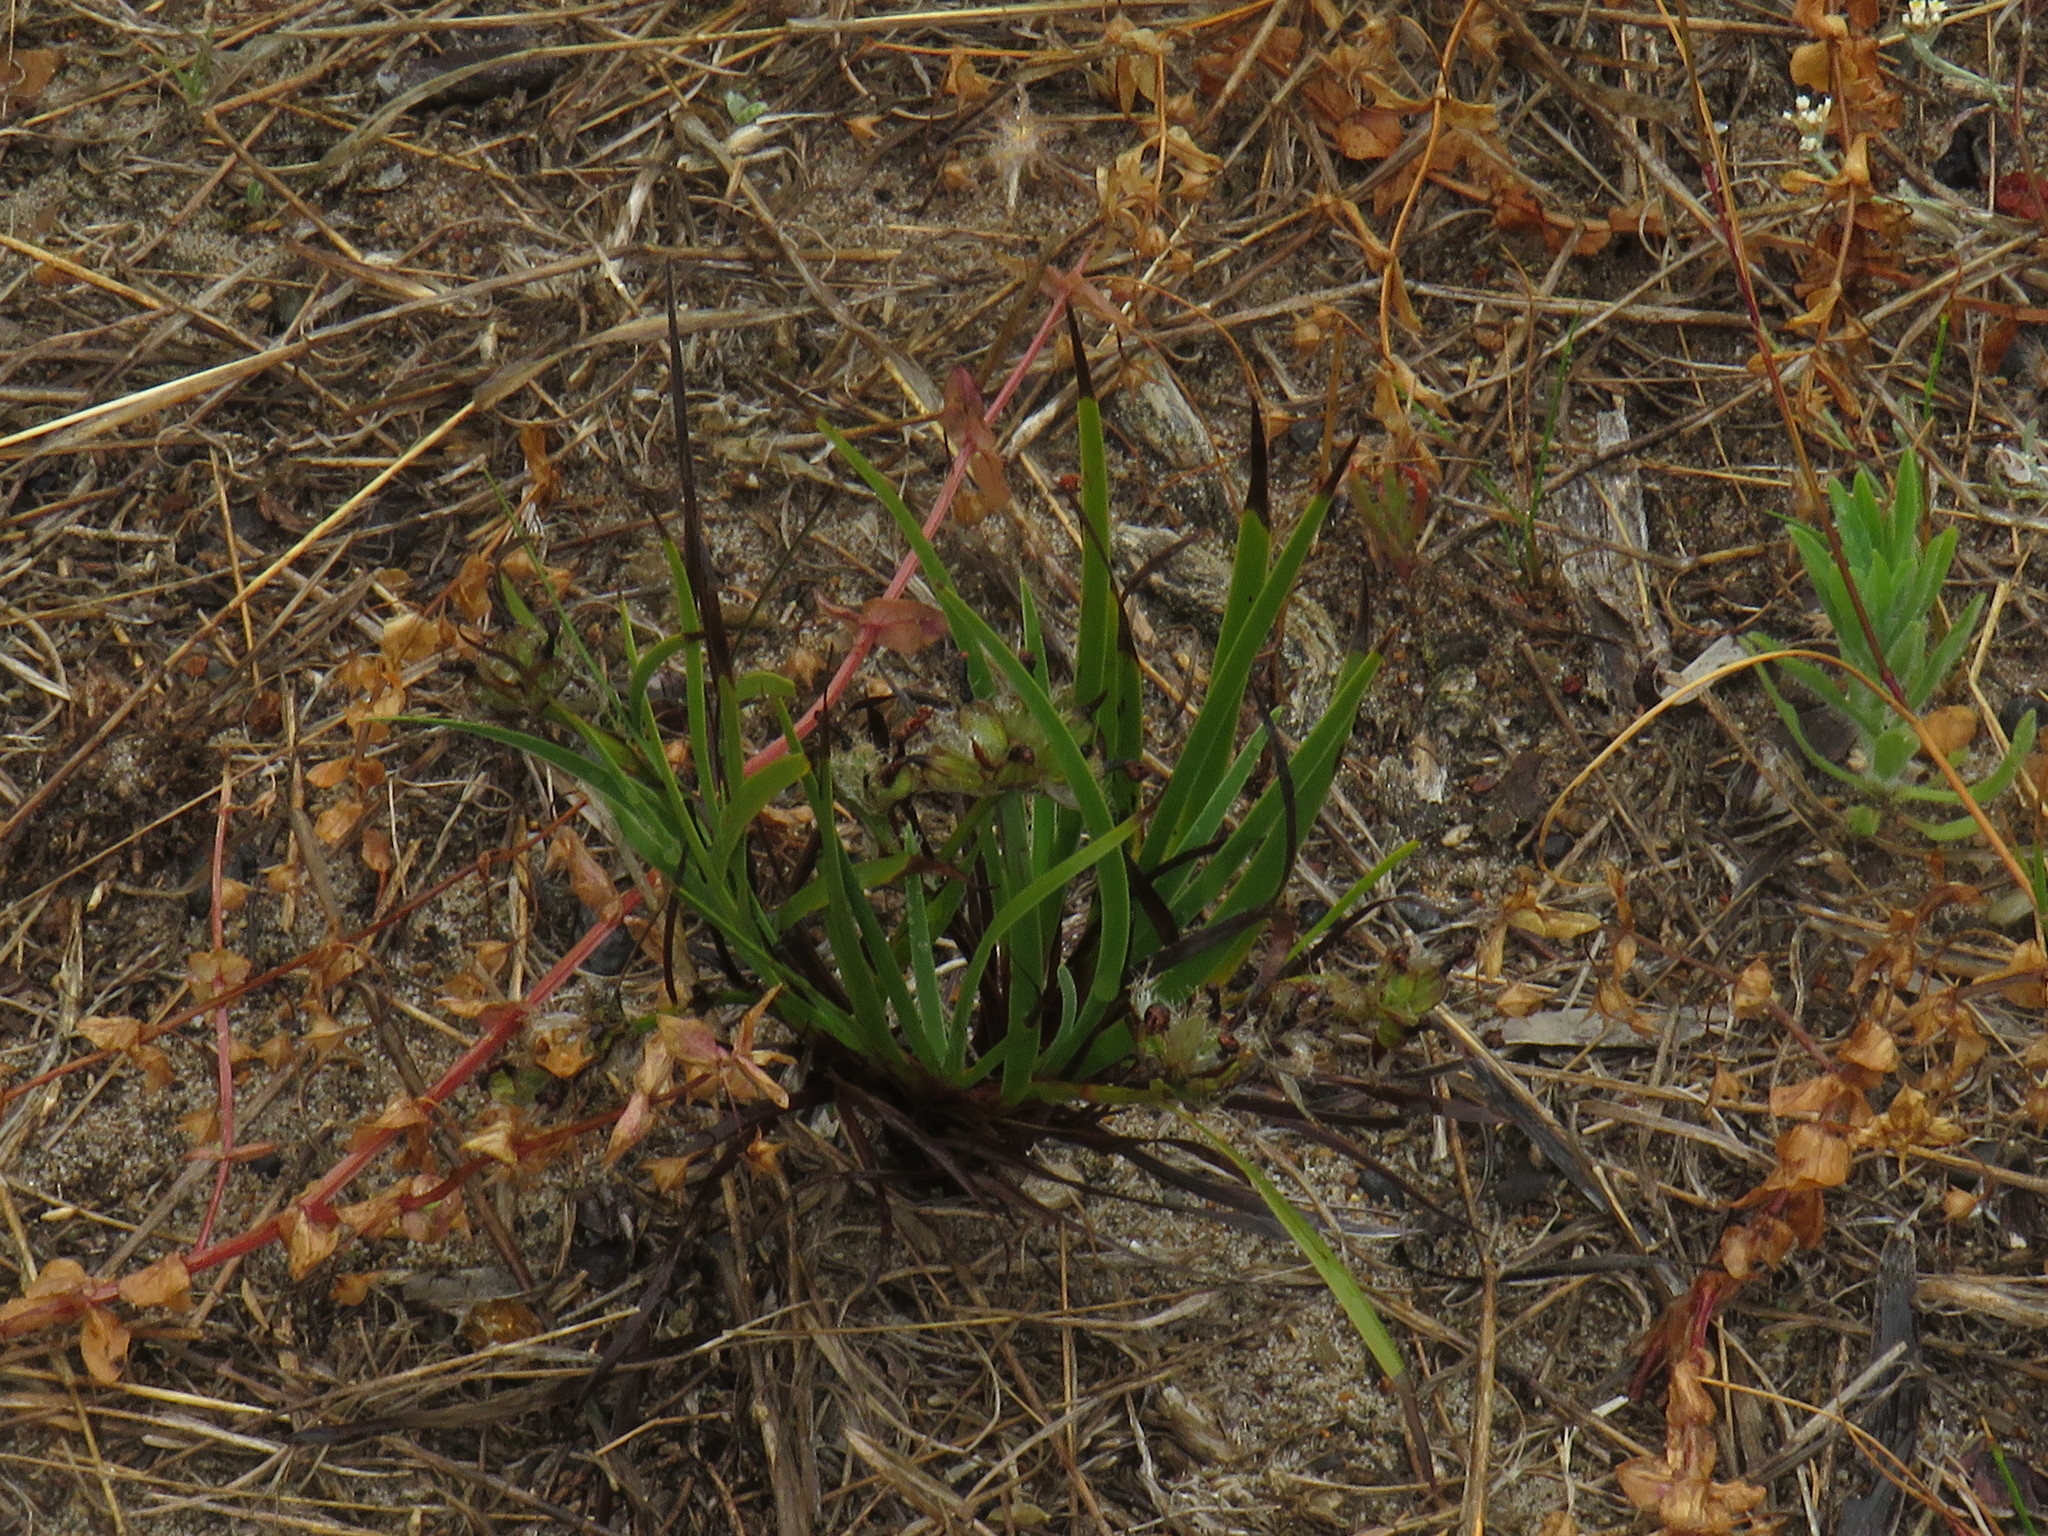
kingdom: Plantae
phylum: Tracheophyta
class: Liliopsida
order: Asparagales
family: Iridaceae
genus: Aristea
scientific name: Aristea africana
